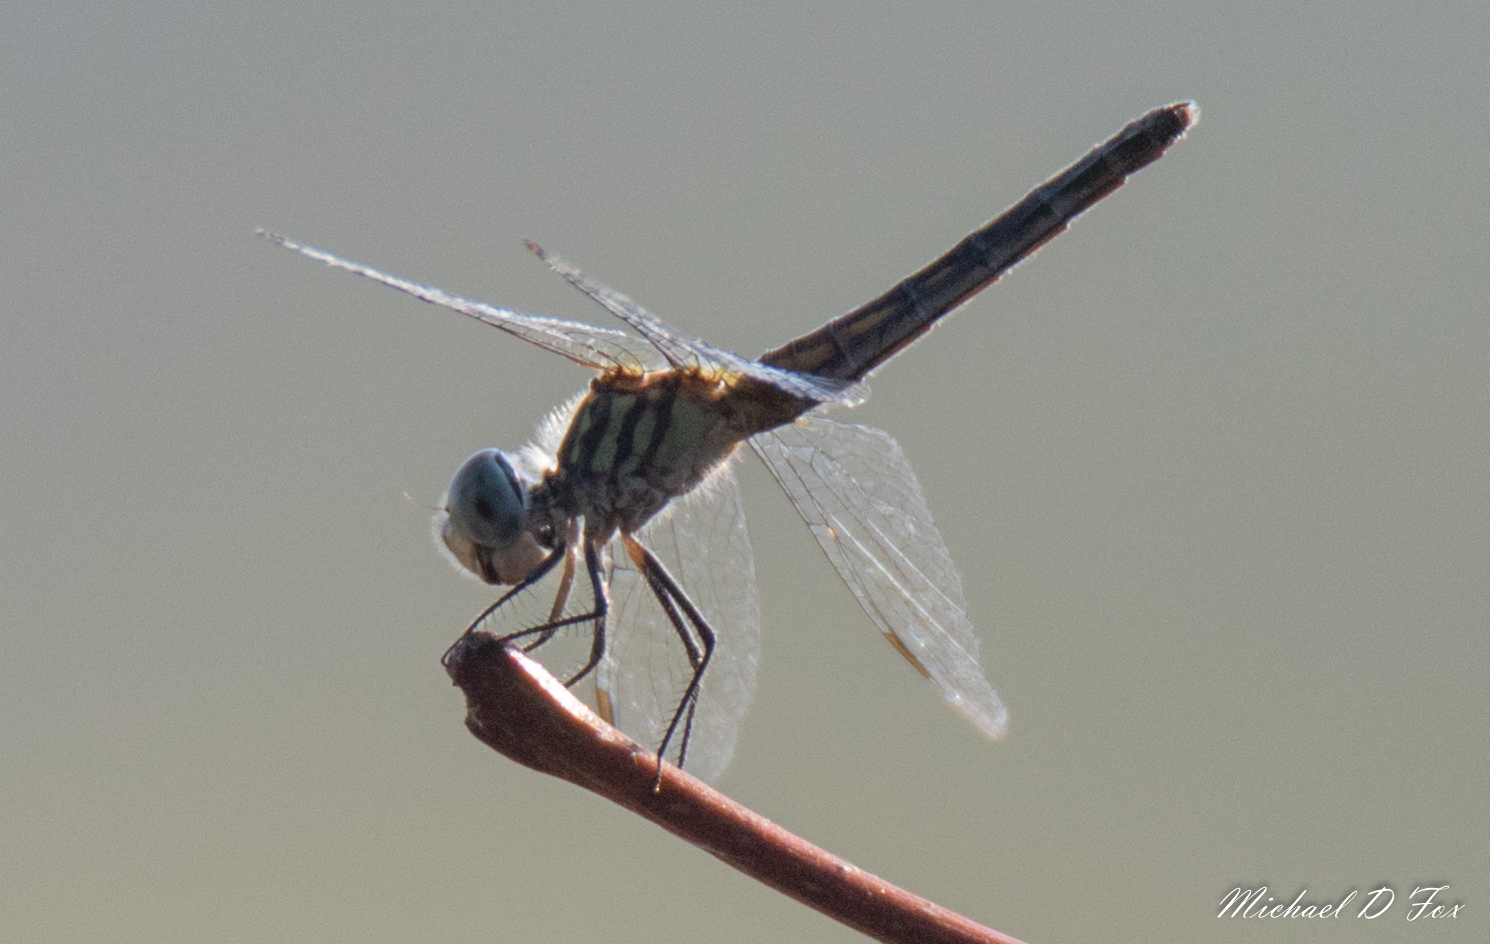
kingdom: Animalia
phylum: Arthropoda
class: Insecta
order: Odonata
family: Libellulidae
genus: Pachydiplax
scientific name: Pachydiplax longipennis
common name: Blue dasher
